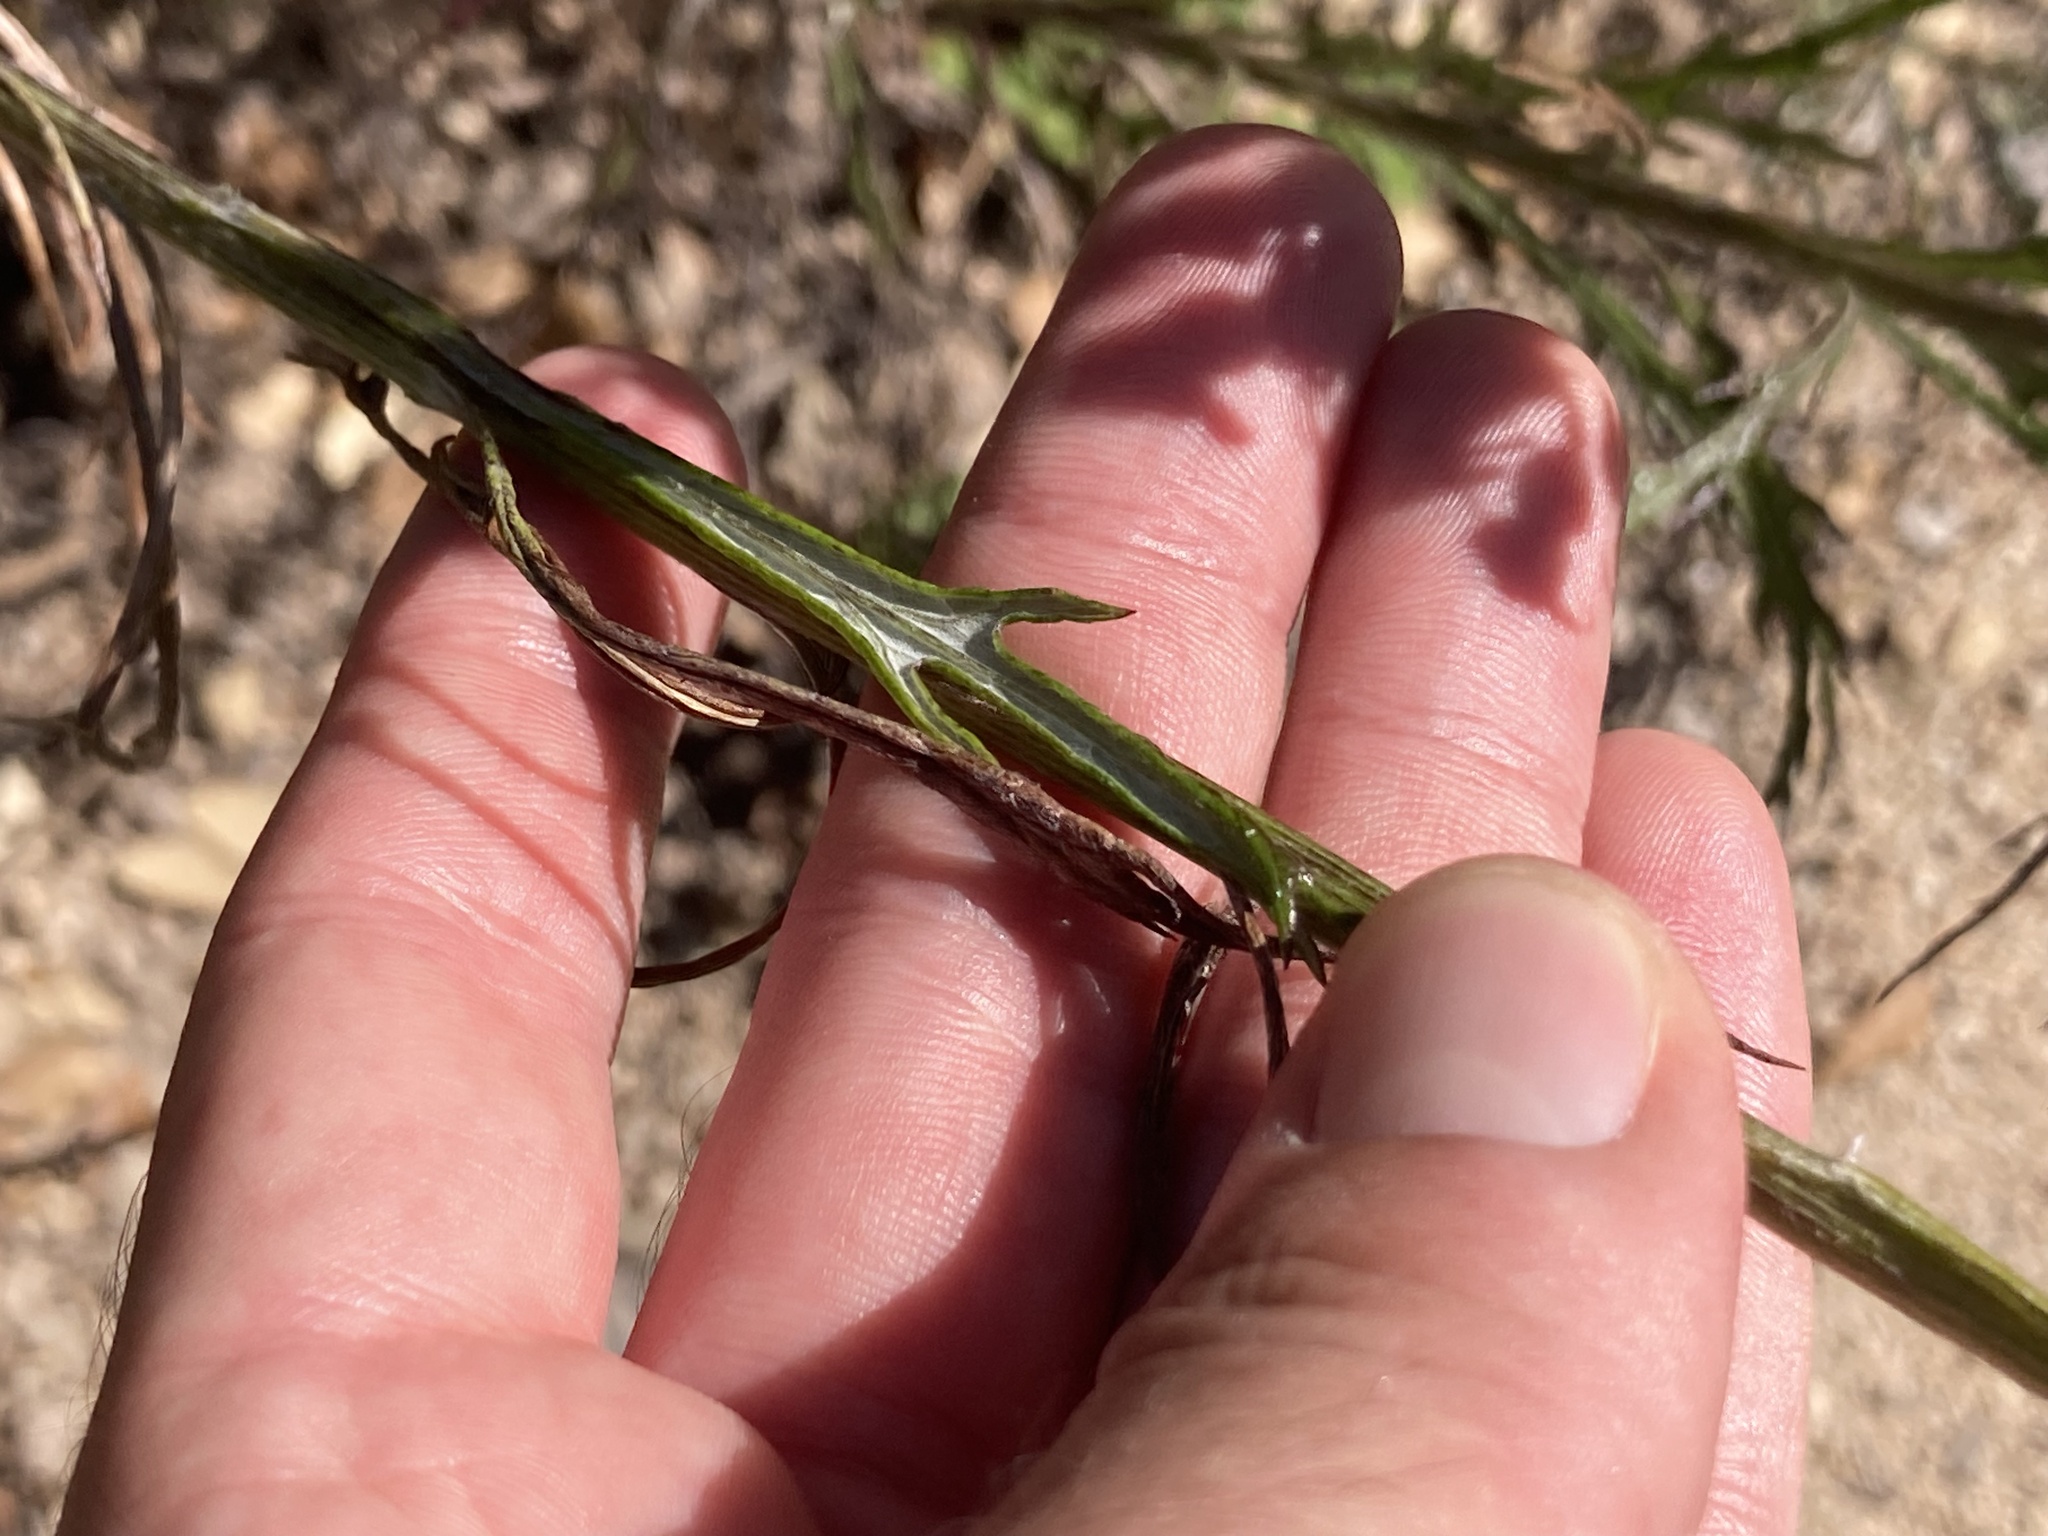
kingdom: Plantae
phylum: Tracheophyta
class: Magnoliopsida
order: Asterales
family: Asteraceae
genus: Senecio
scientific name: Senecio pterophorus
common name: Shoddy ragwort
